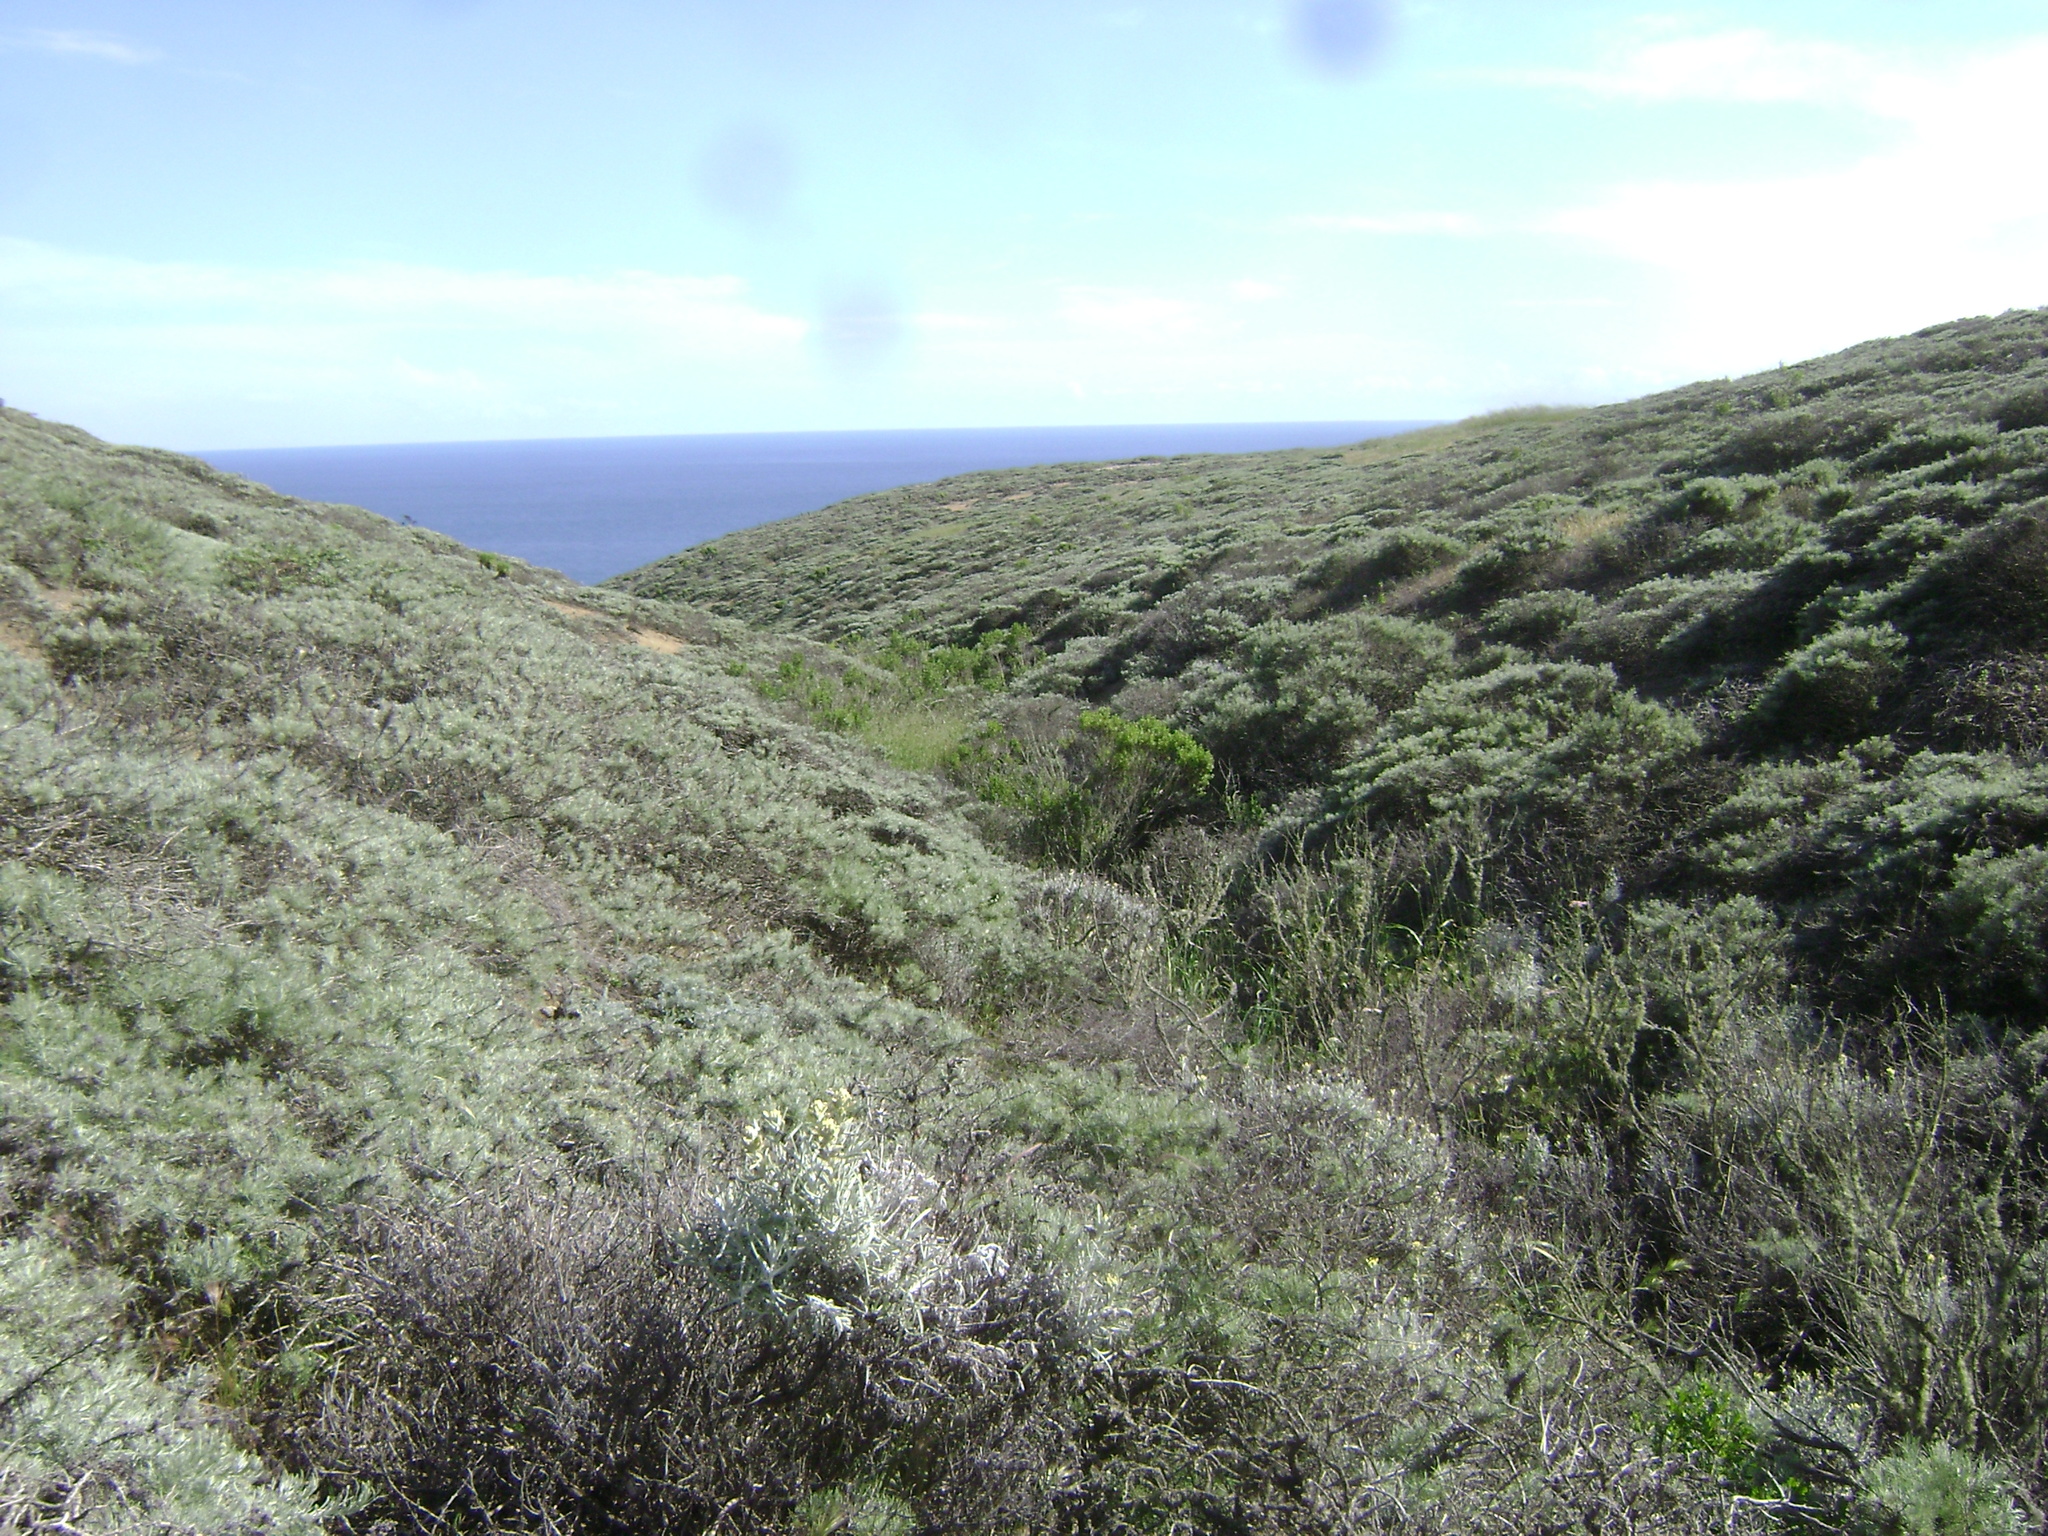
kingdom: Plantae
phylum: Tracheophyta
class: Magnoliopsida
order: Asterales
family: Asteraceae
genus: Artemisia
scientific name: Artemisia californica
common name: California sagebrush
